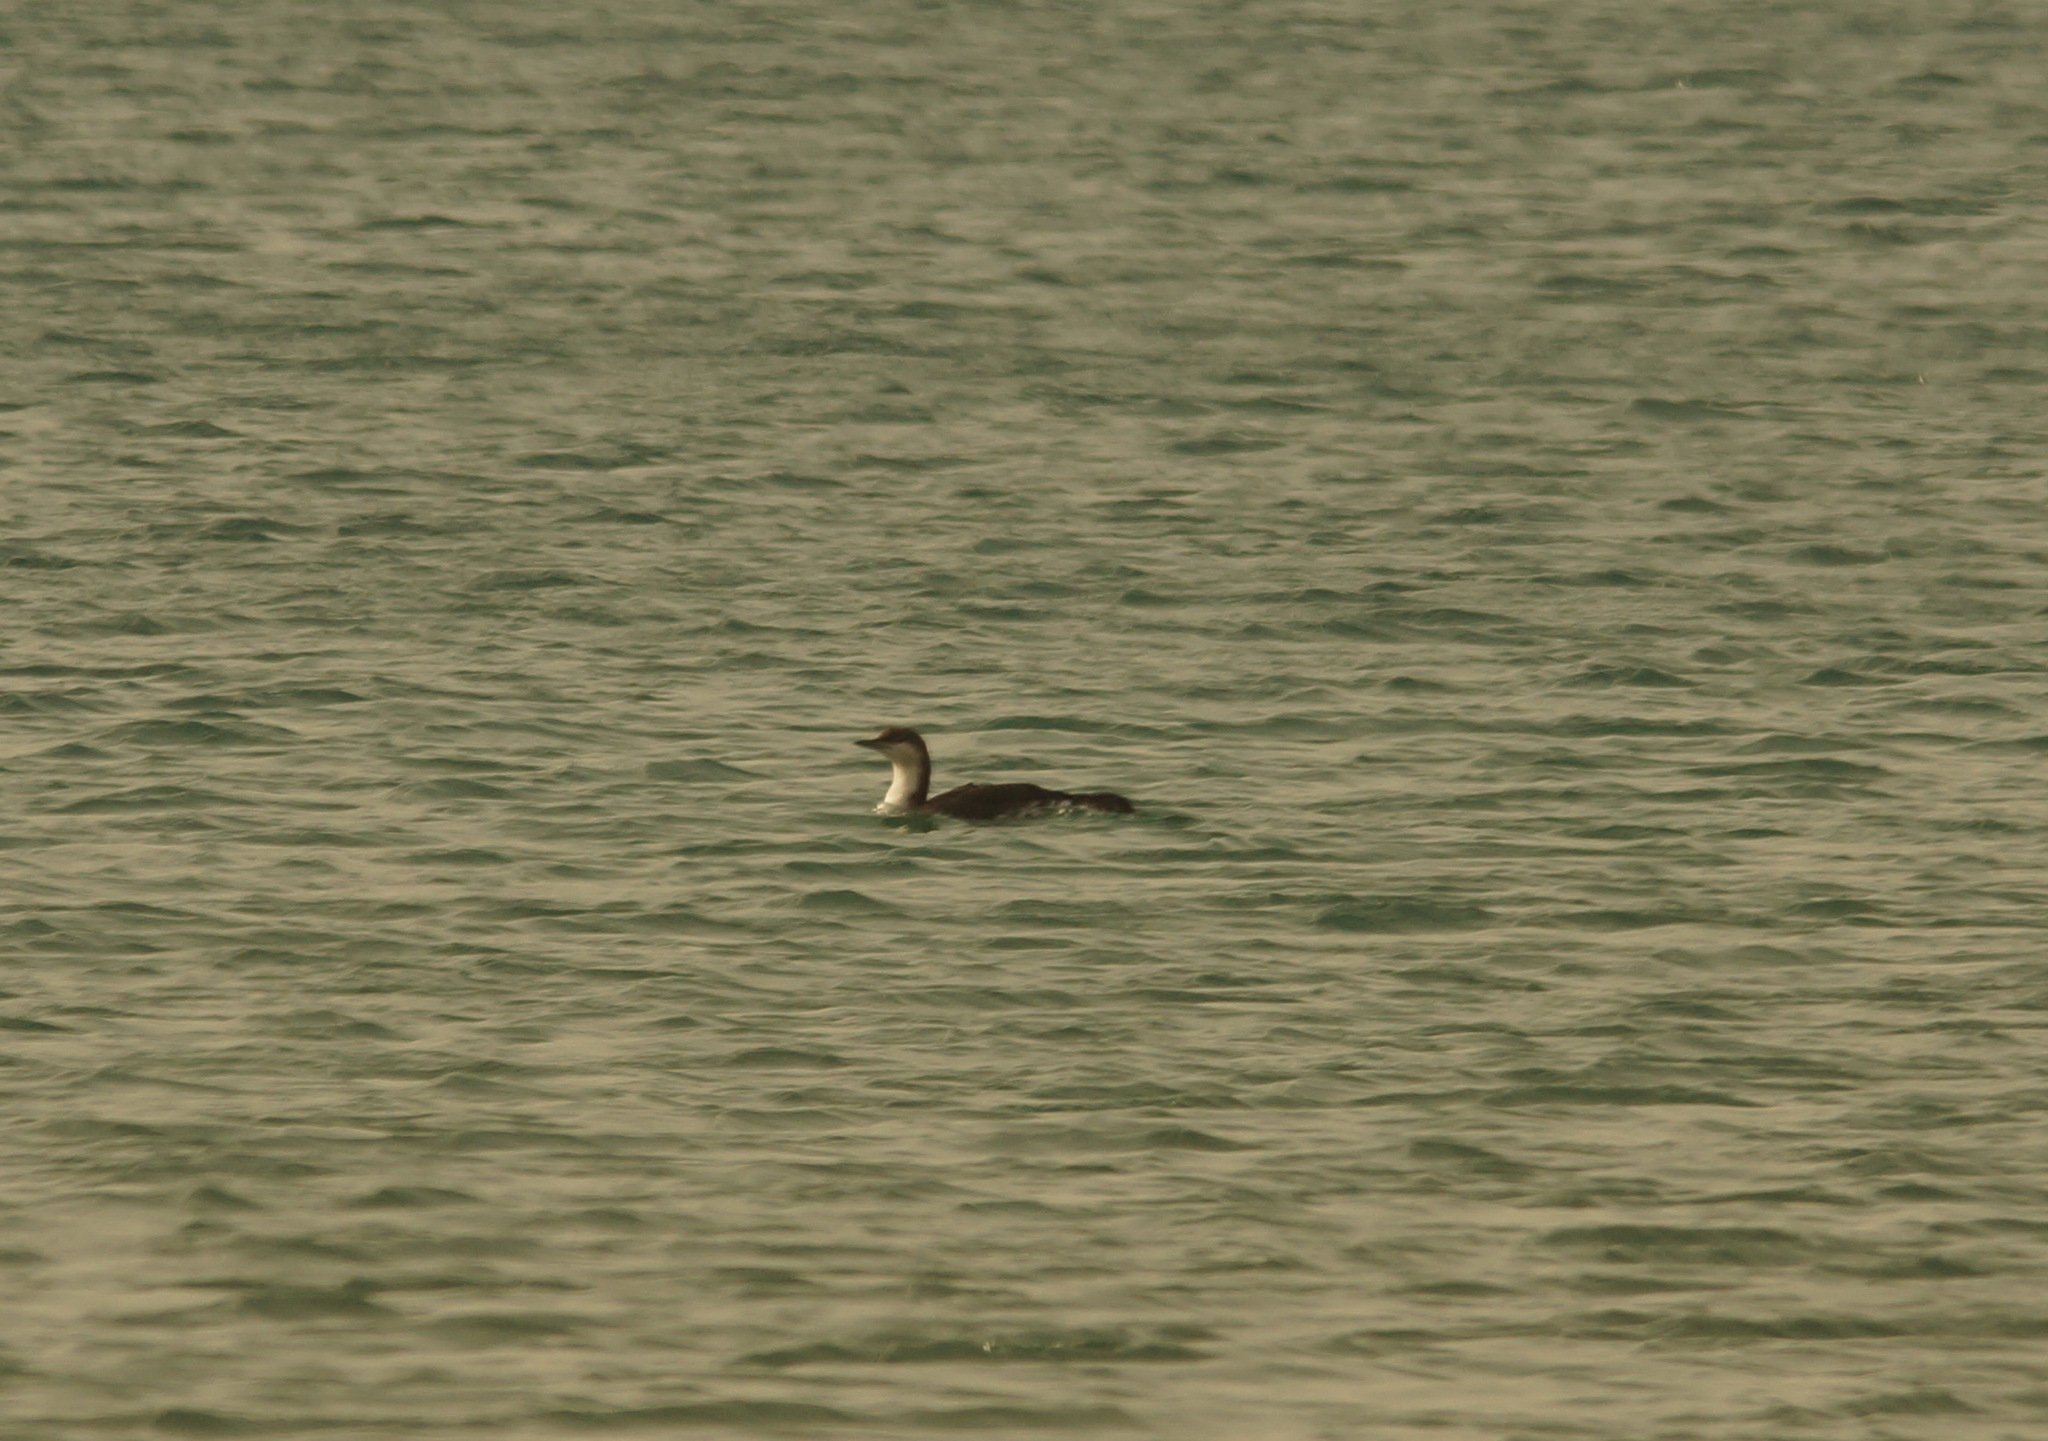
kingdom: Animalia
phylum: Chordata
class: Aves
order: Gaviiformes
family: Gaviidae
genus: Gavia
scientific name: Gavia arctica
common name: Black-throated loon
